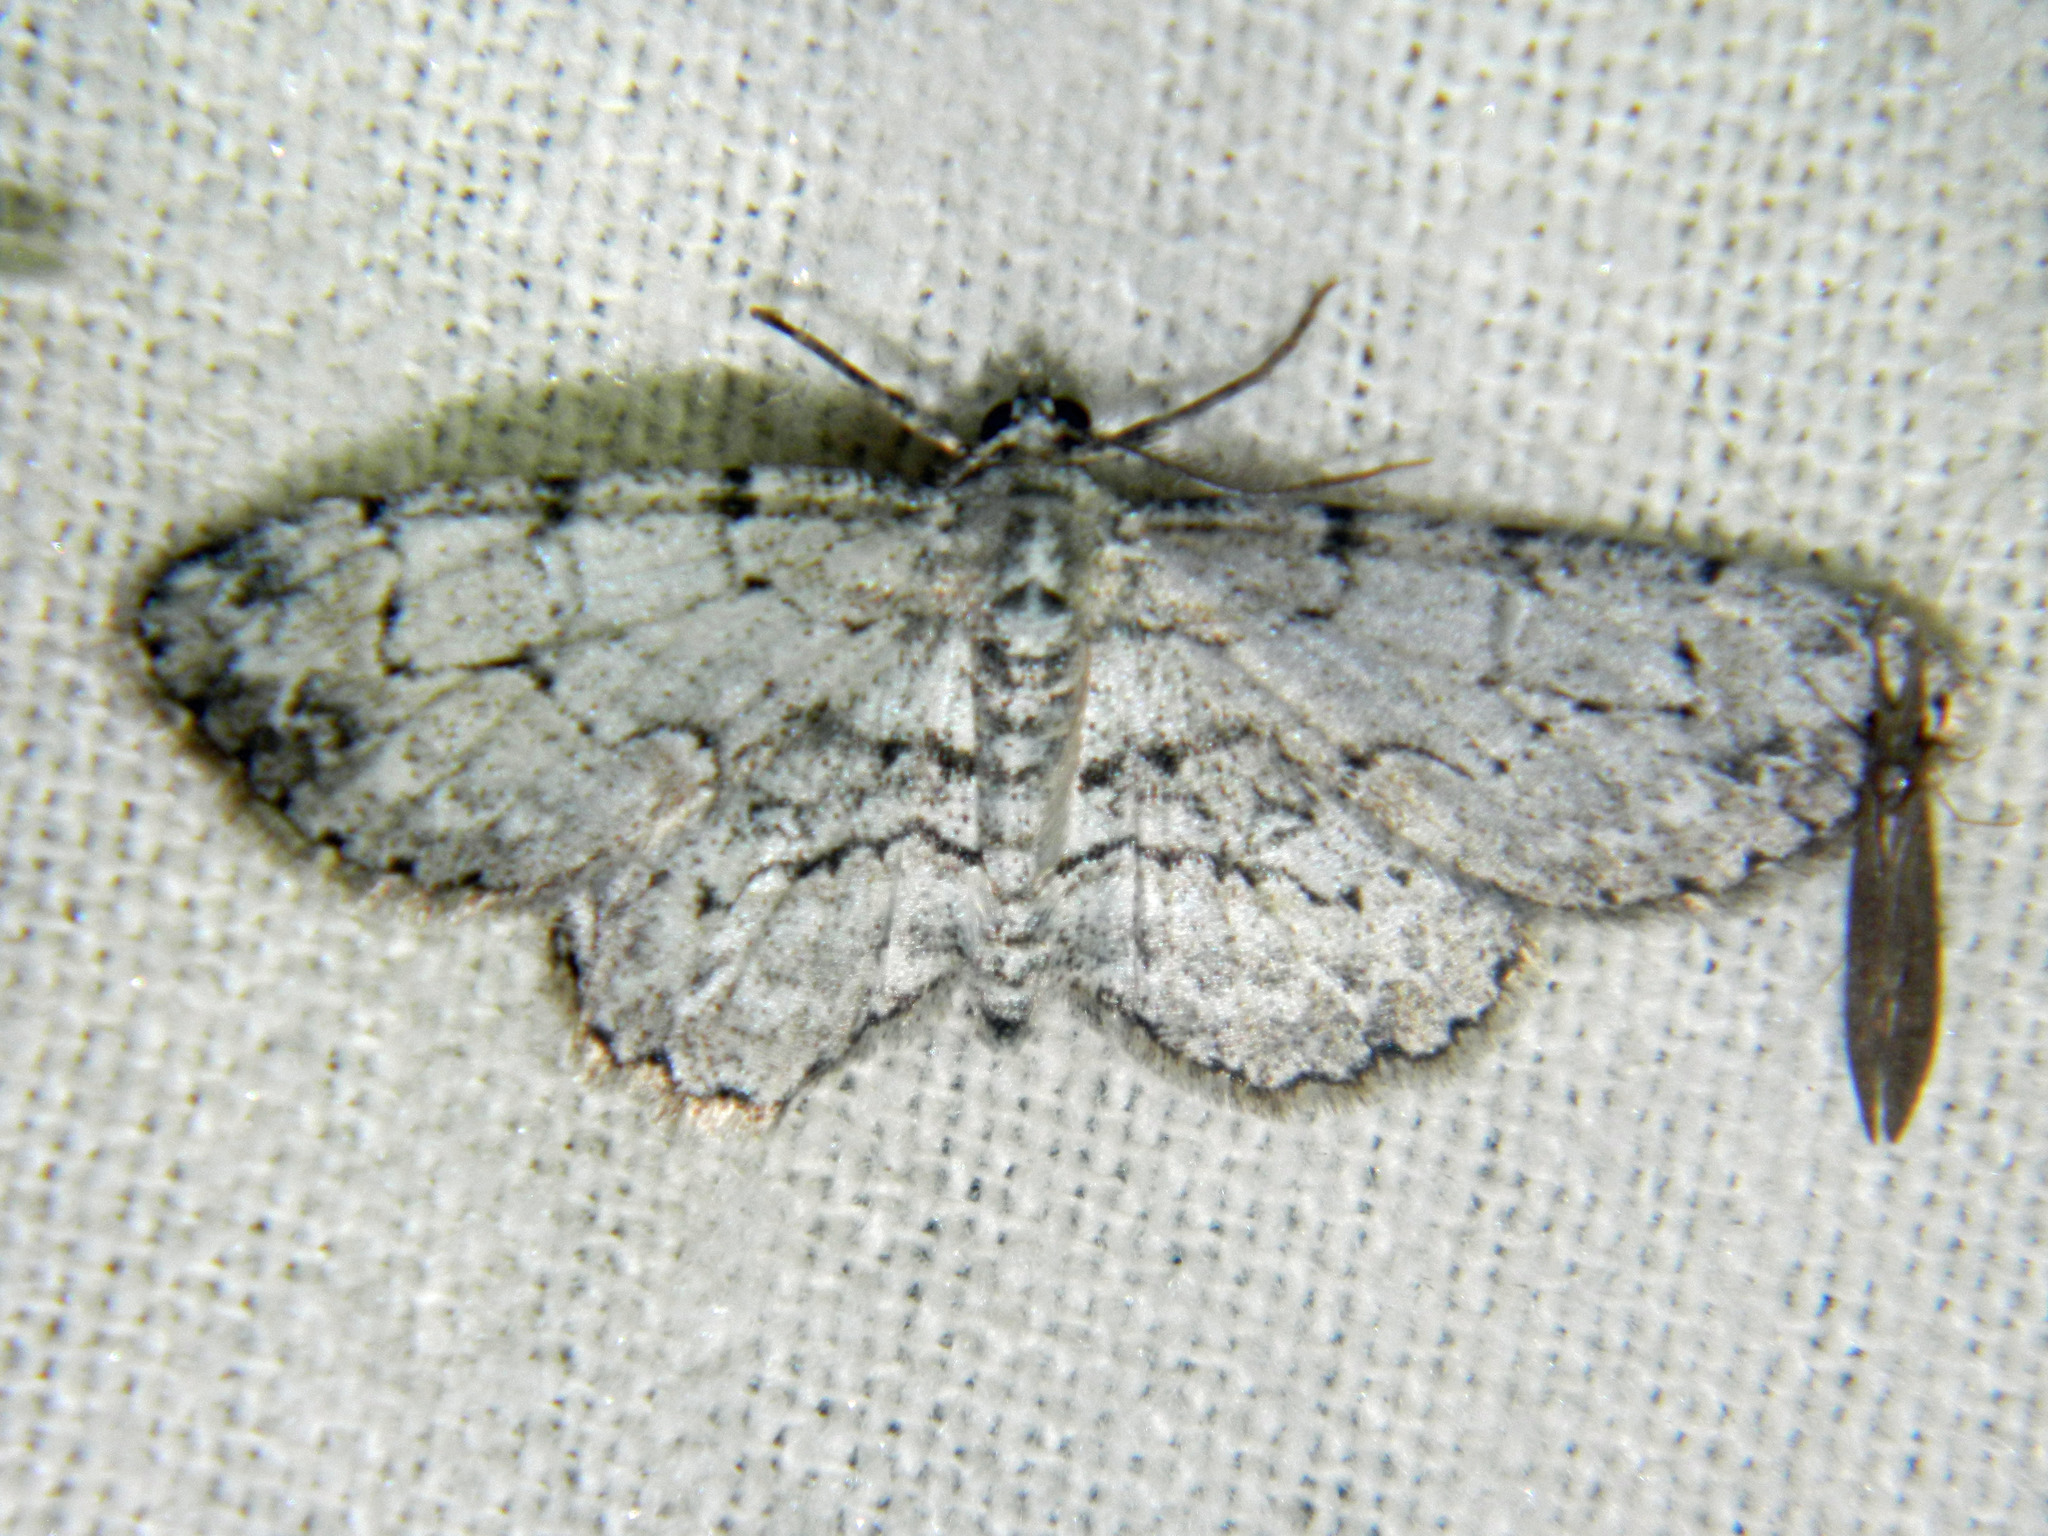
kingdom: Animalia
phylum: Arthropoda
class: Insecta
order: Lepidoptera
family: Geometridae
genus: Iridopsis
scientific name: Iridopsis ephyraria
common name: Pale-winged gray
